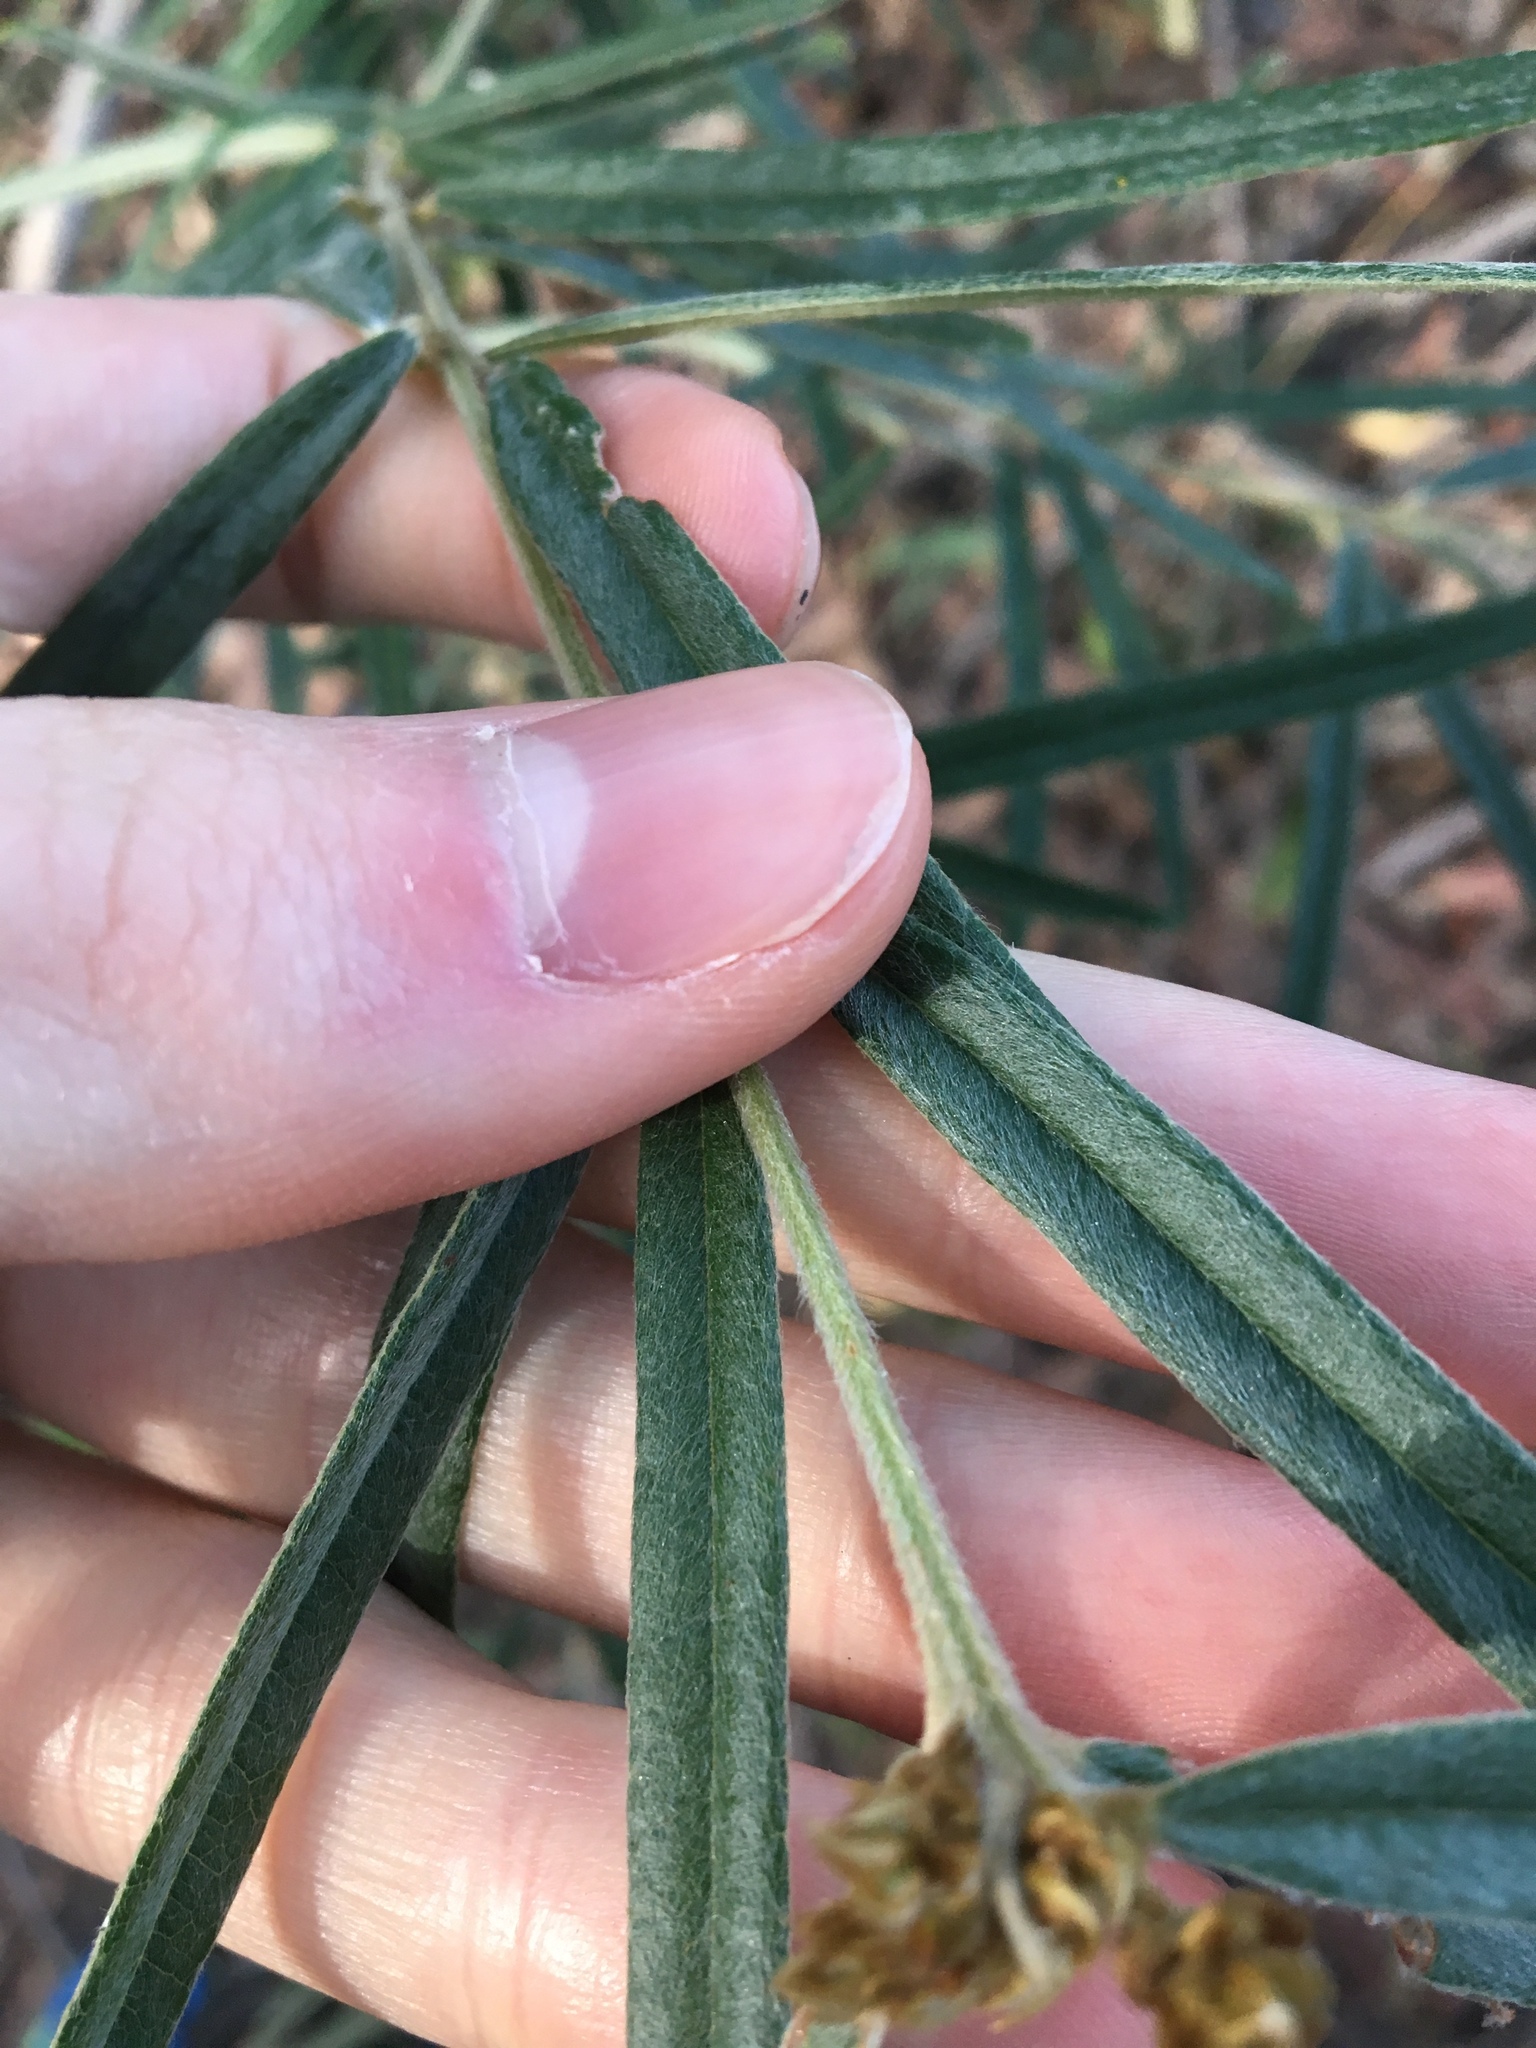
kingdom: Plantae
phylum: Tracheophyta
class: Magnoliopsida
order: Apiales
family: Araliaceae
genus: Astrotricha
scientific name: Astrotricha longifolia
